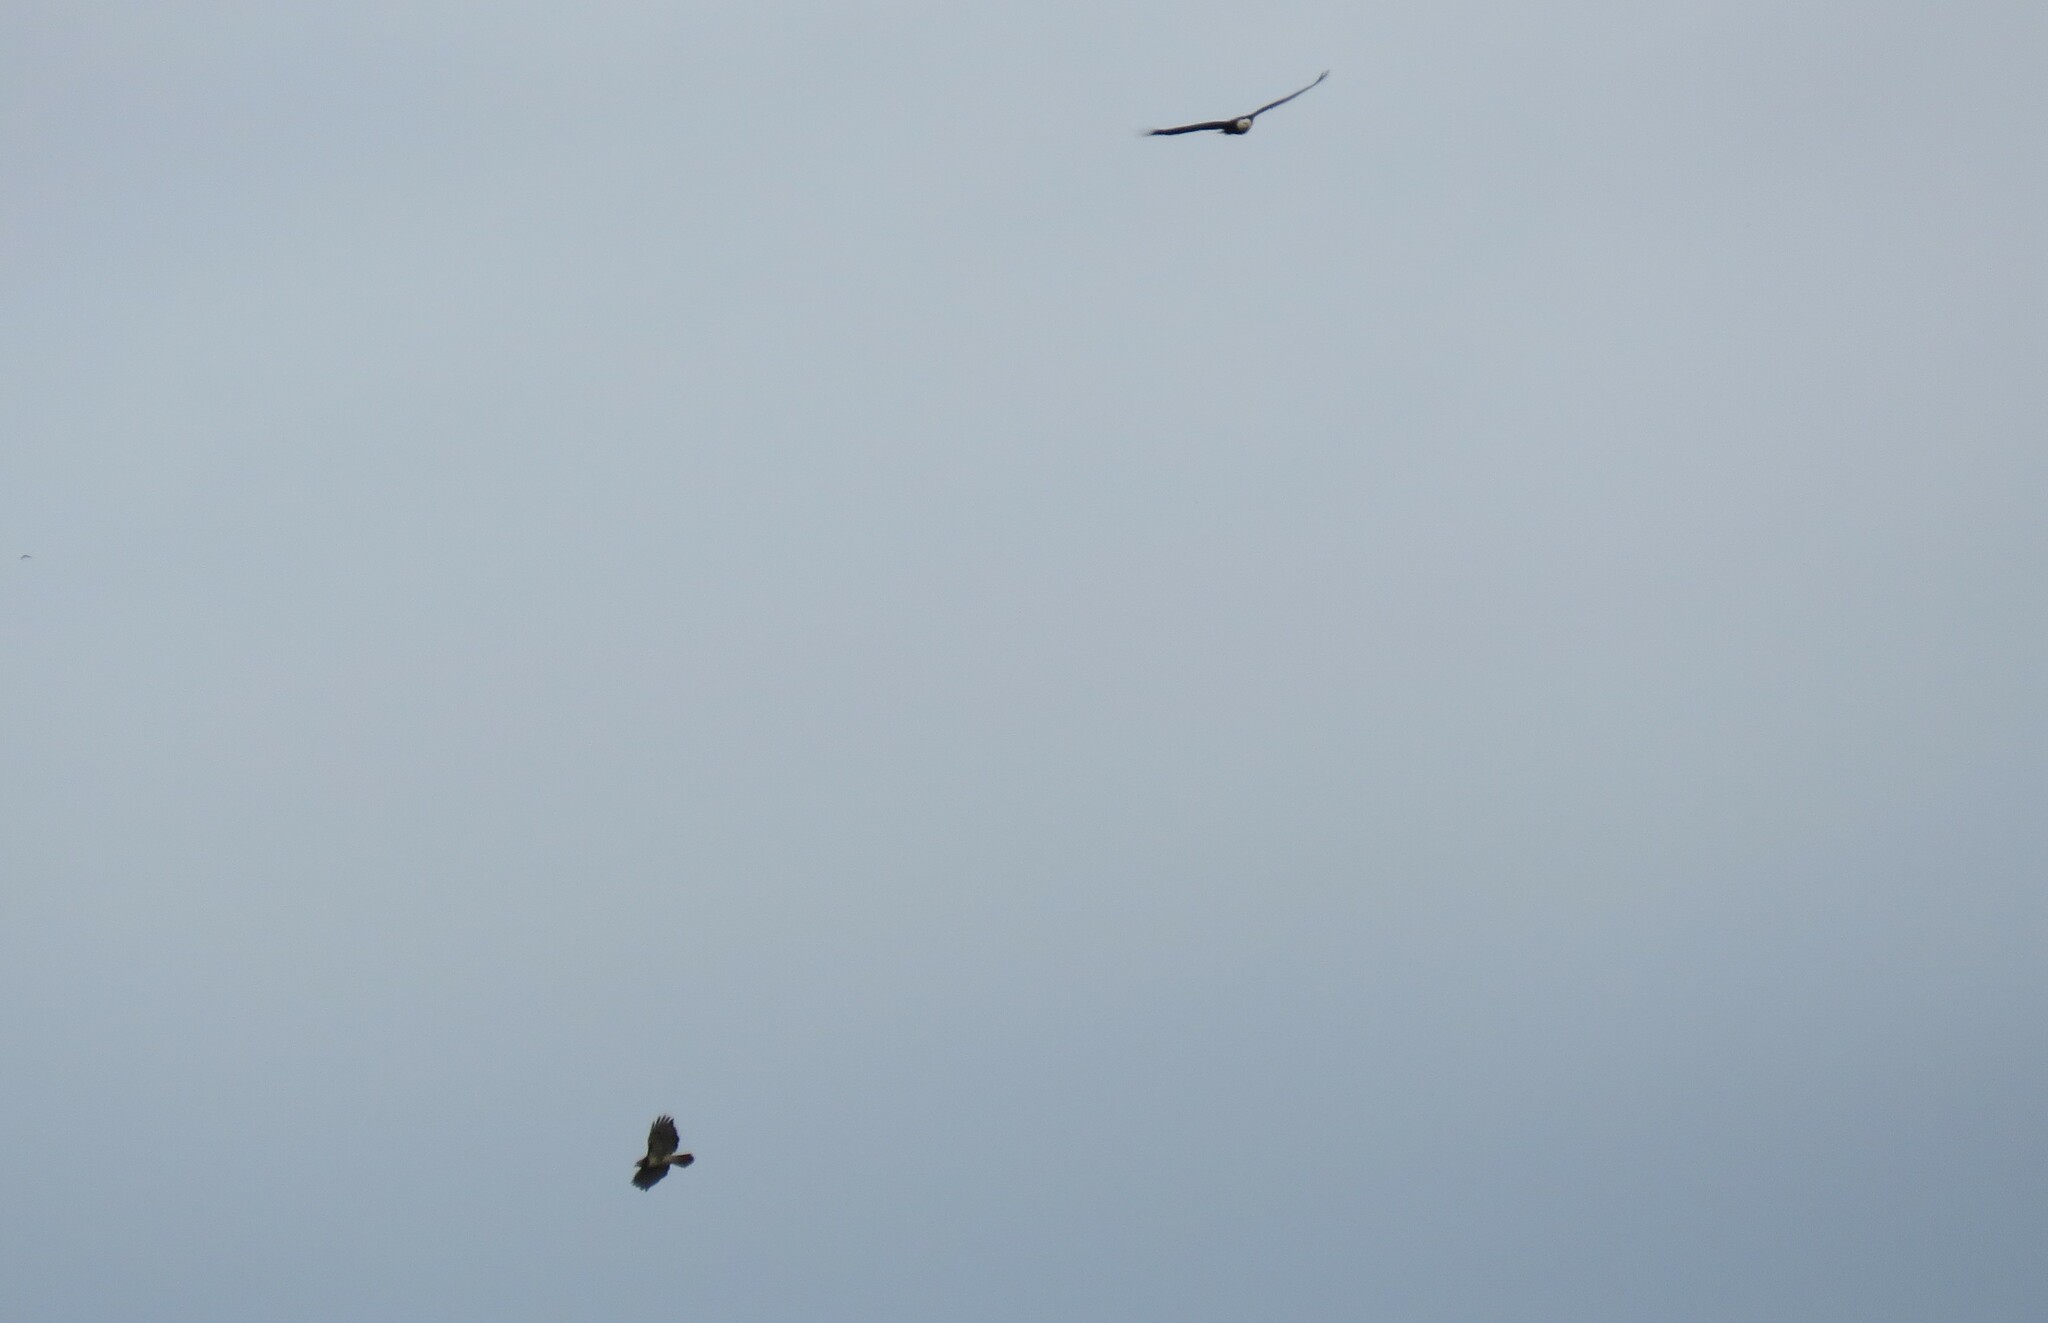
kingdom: Animalia
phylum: Chordata
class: Aves
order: Accipitriformes
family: Accipitridae
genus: Haliaeetus
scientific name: Haliaeetus leucocephalus
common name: Bald eagle
